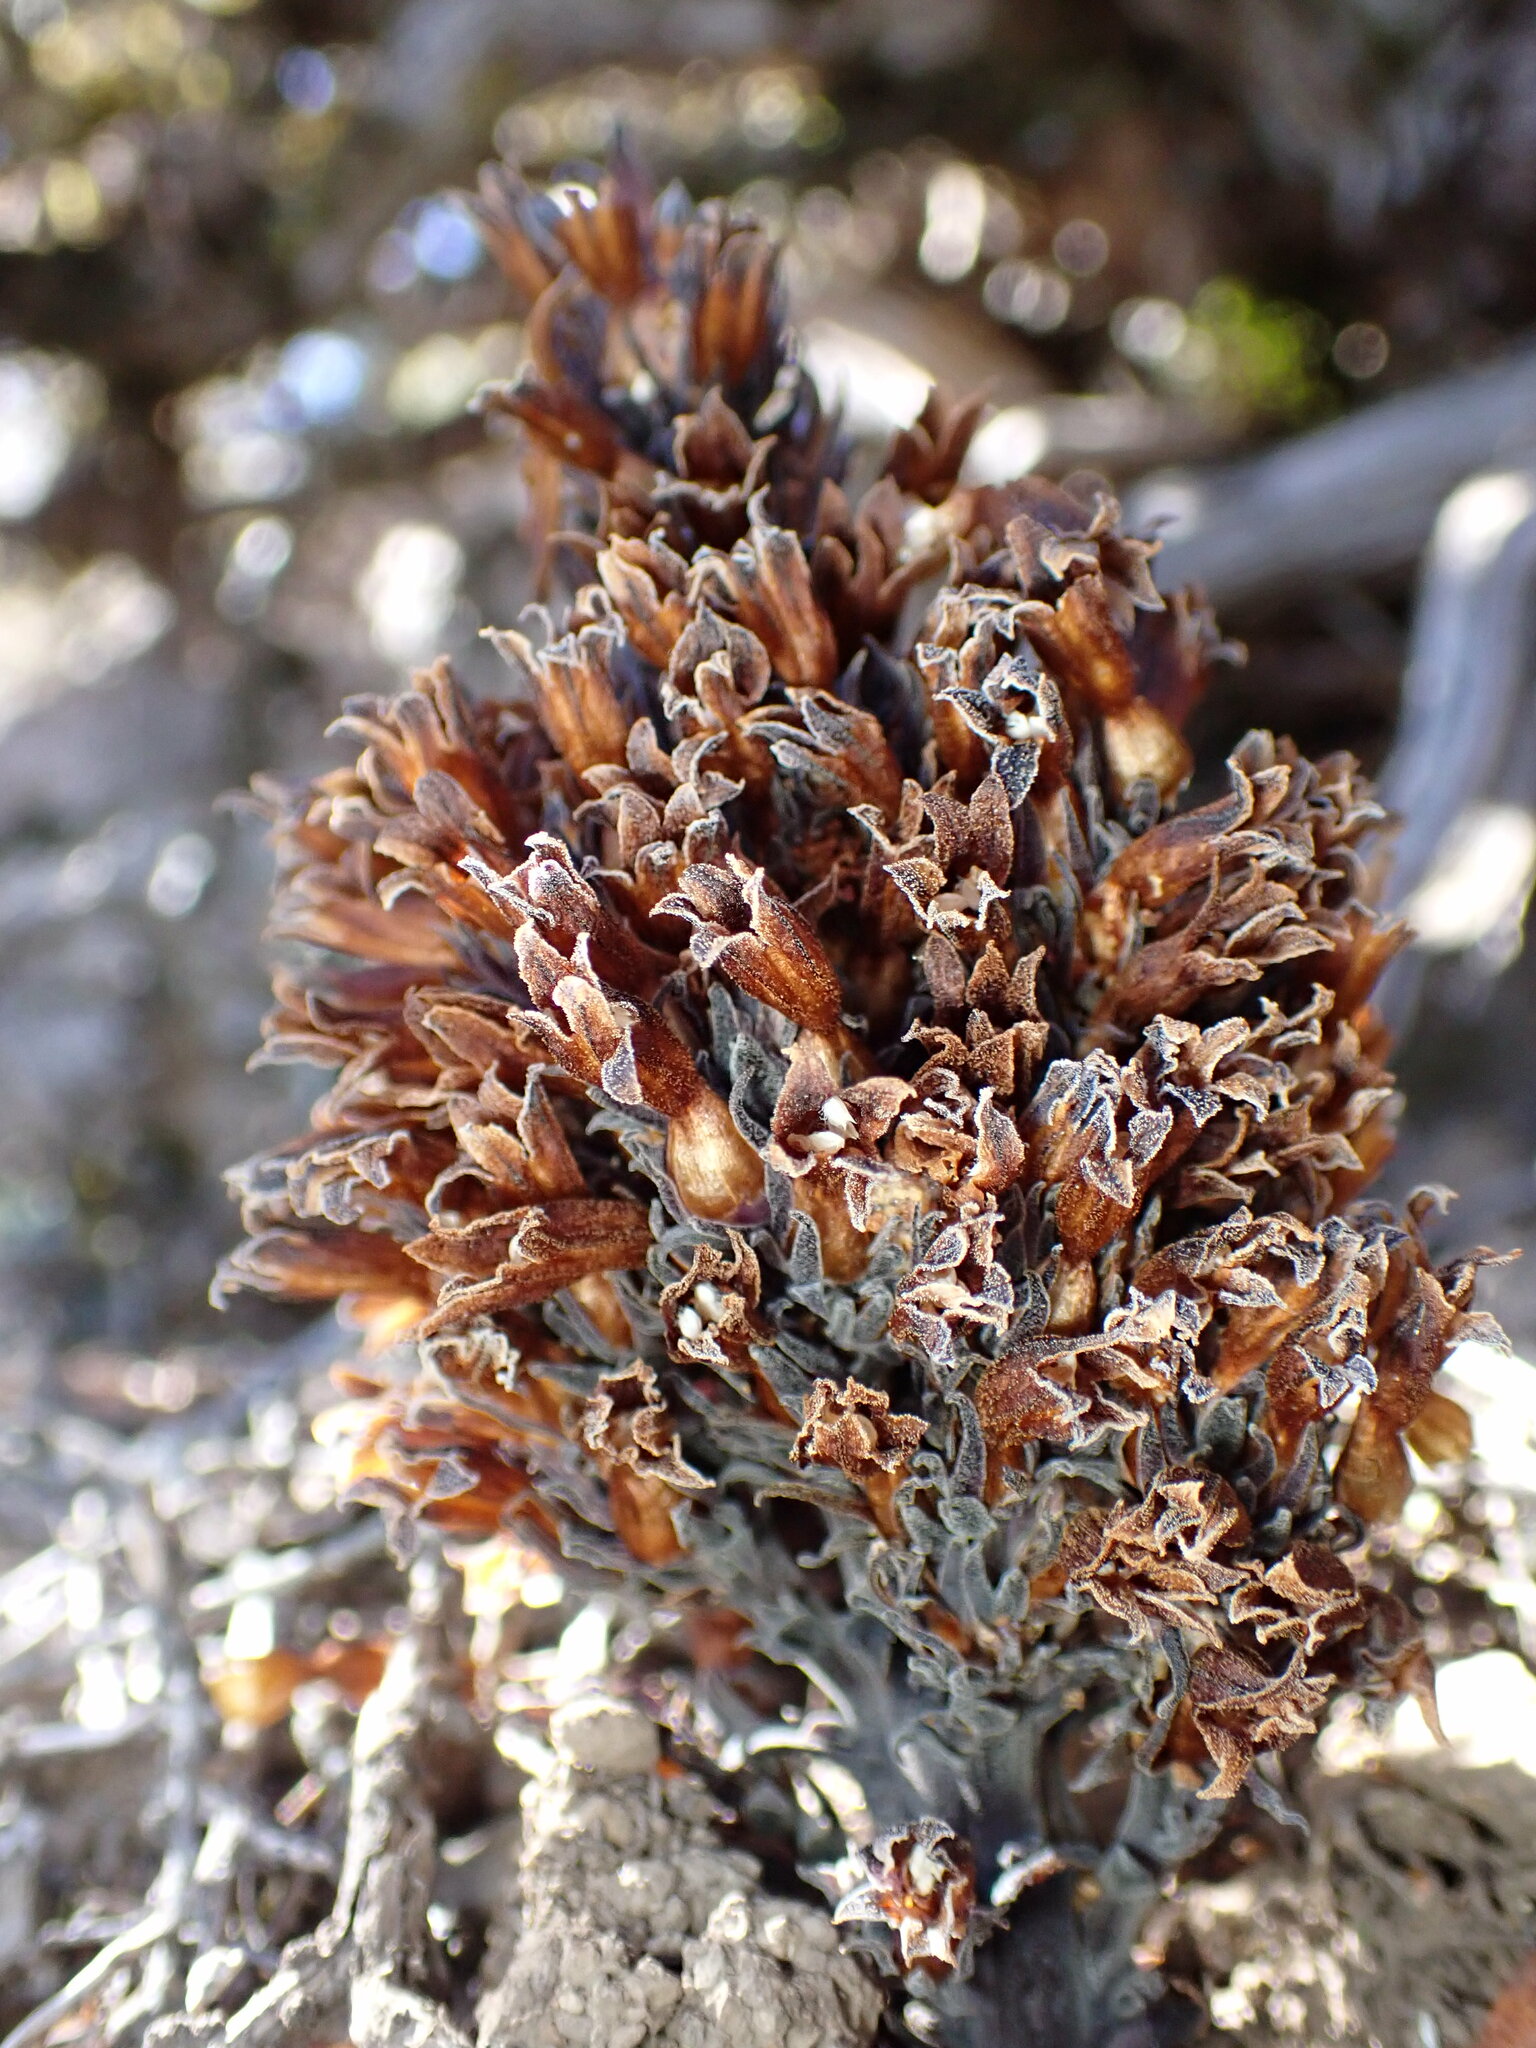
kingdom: Plantae
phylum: Tracheophyta
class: Magnoliopsida
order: Lamiales
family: Orobanchaceae
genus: Aphyllon
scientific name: Aphyllon tuberosum
